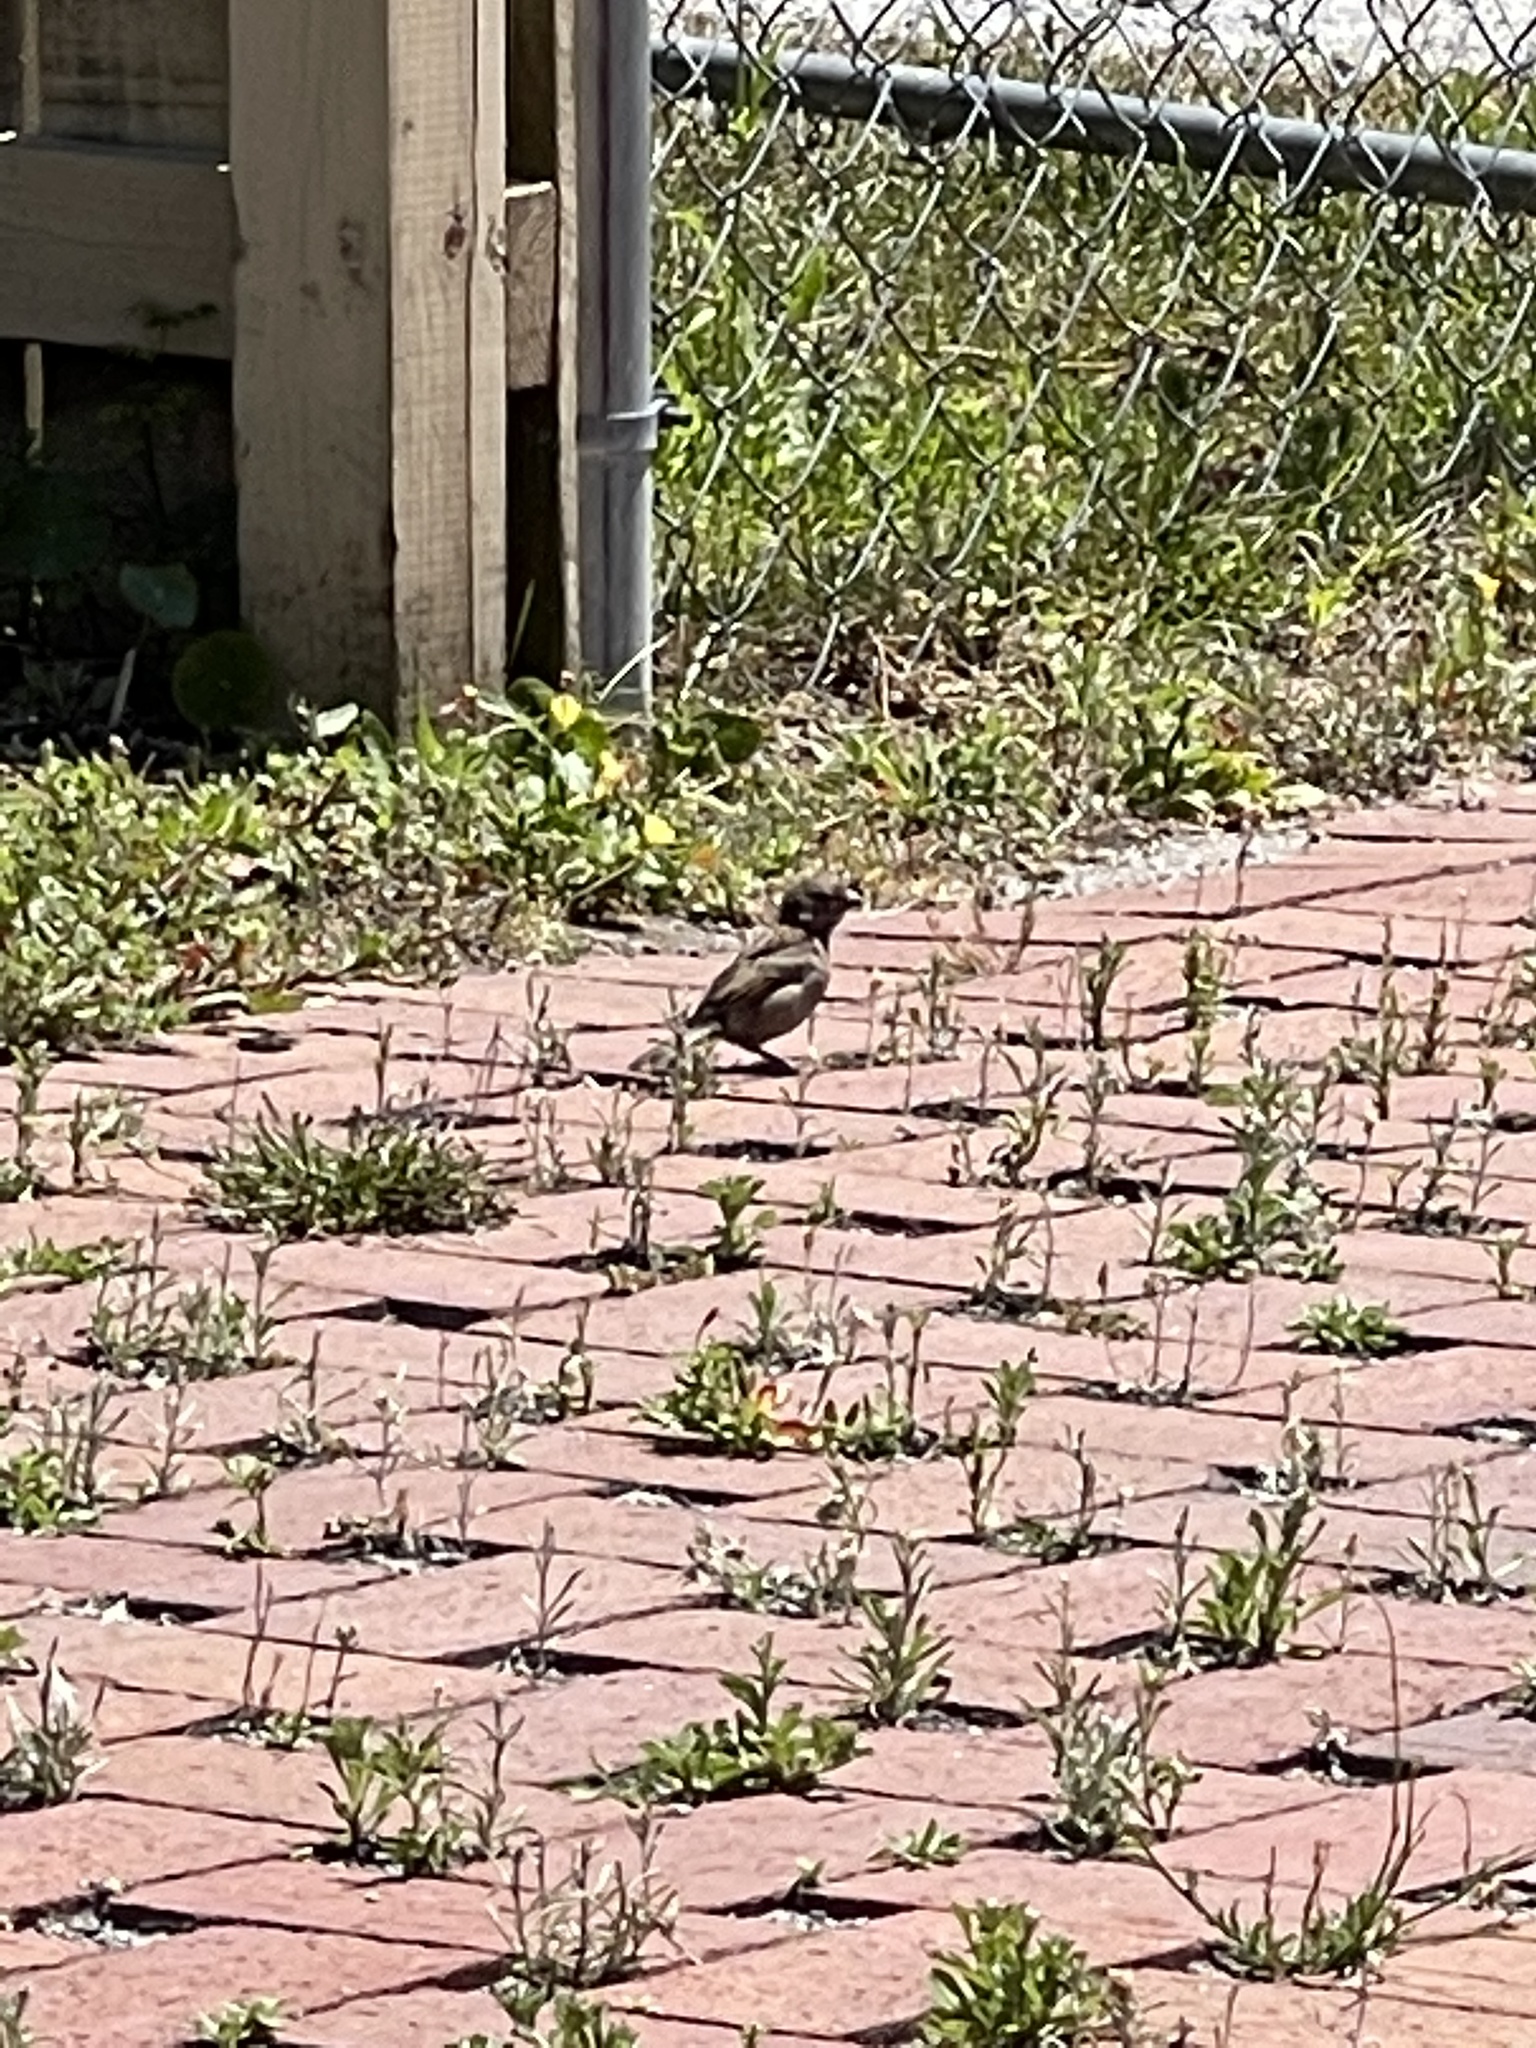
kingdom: Animalia
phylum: Chordata
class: Aves
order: Passeriformes
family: Passeridae
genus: Passer
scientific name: Passer domesticus
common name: House sparrow
